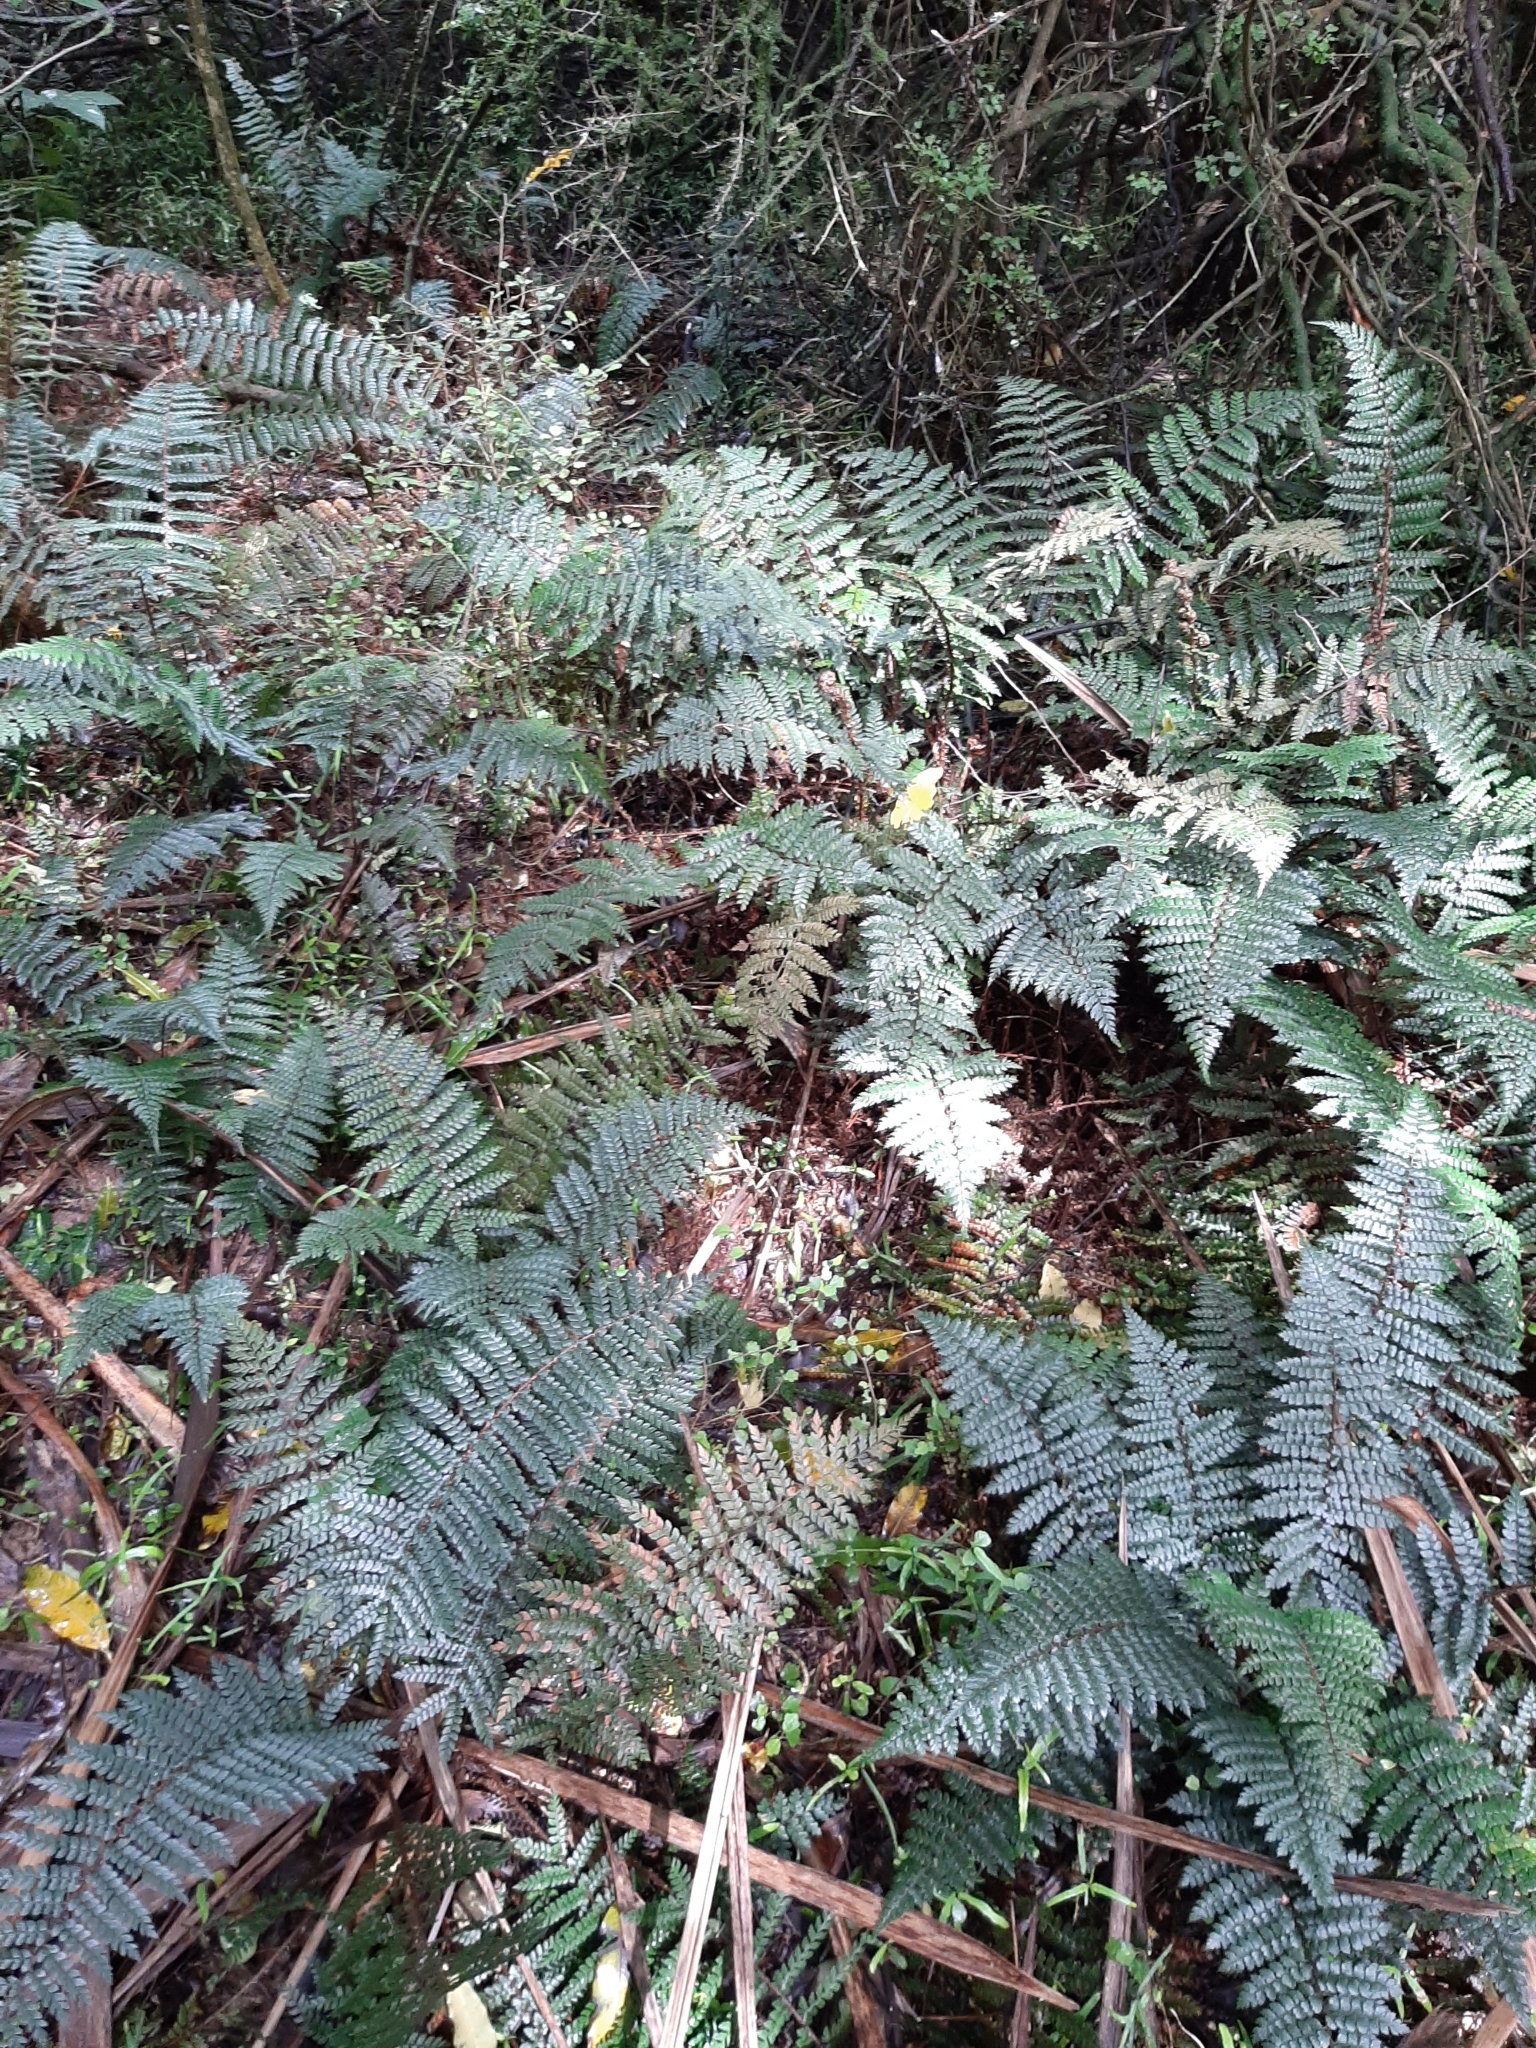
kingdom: Plantae
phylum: Tracheophyta
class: Polypodiopsida
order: Polypodiales
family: Dryopteridaceae
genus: Polystichum
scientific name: Polystichum vestitum
